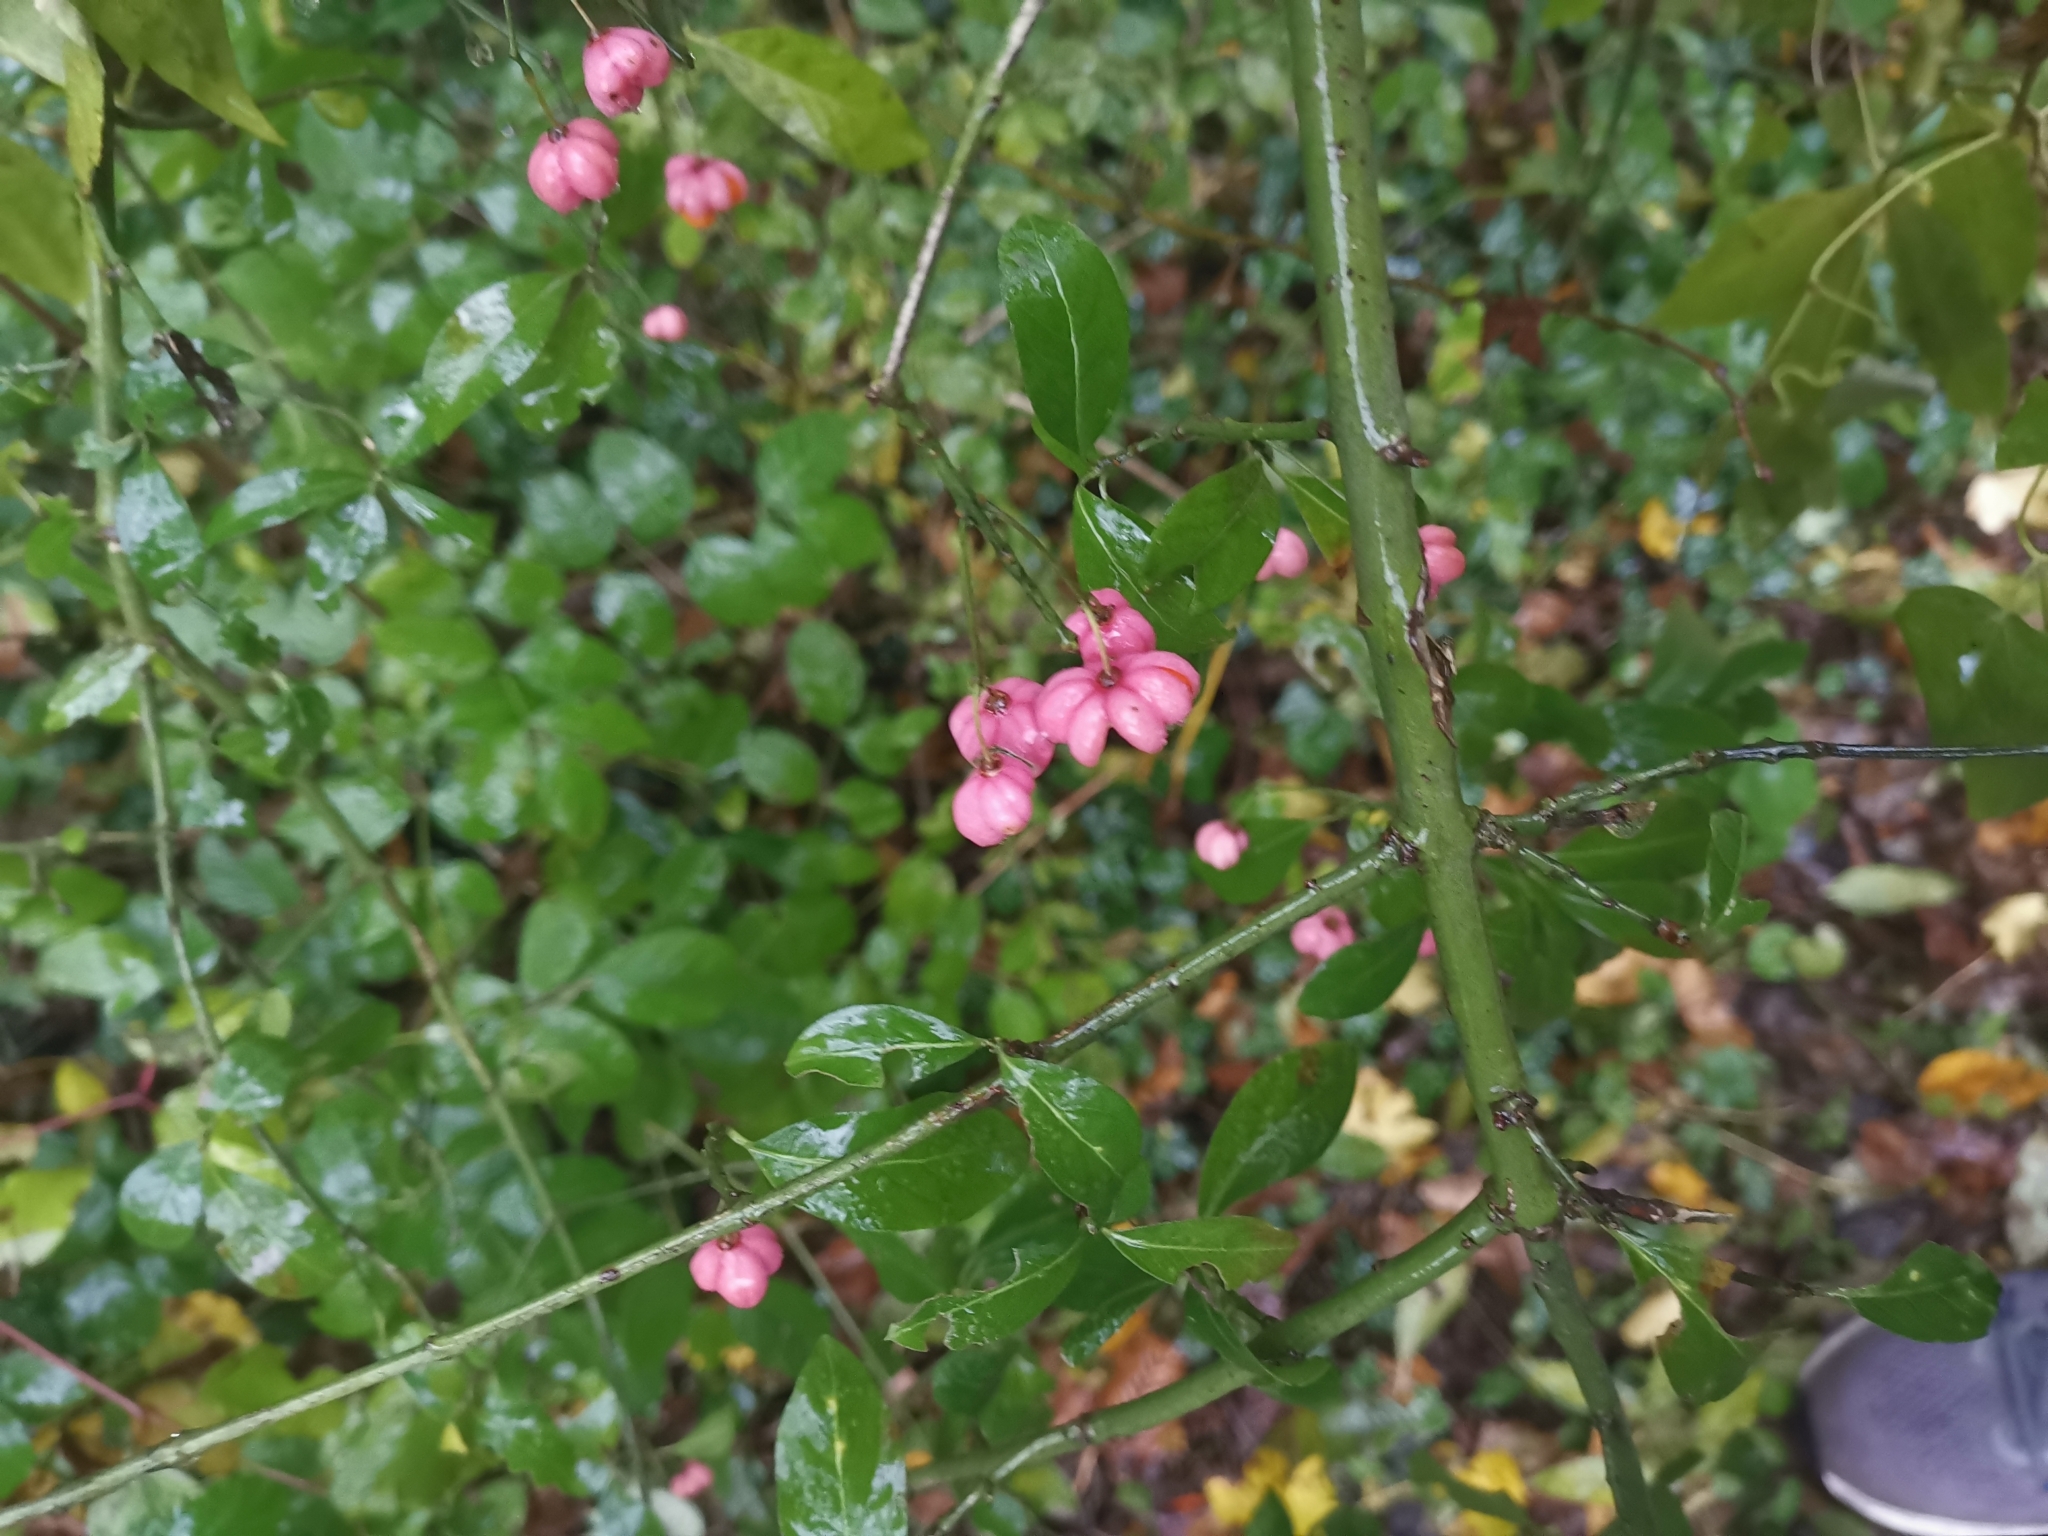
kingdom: Plantae
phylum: Tracheophyta
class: Magnoliopsida
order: Celastrales
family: Celastraceae
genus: Euonymus
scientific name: Euonymus europaeus
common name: Spindle
